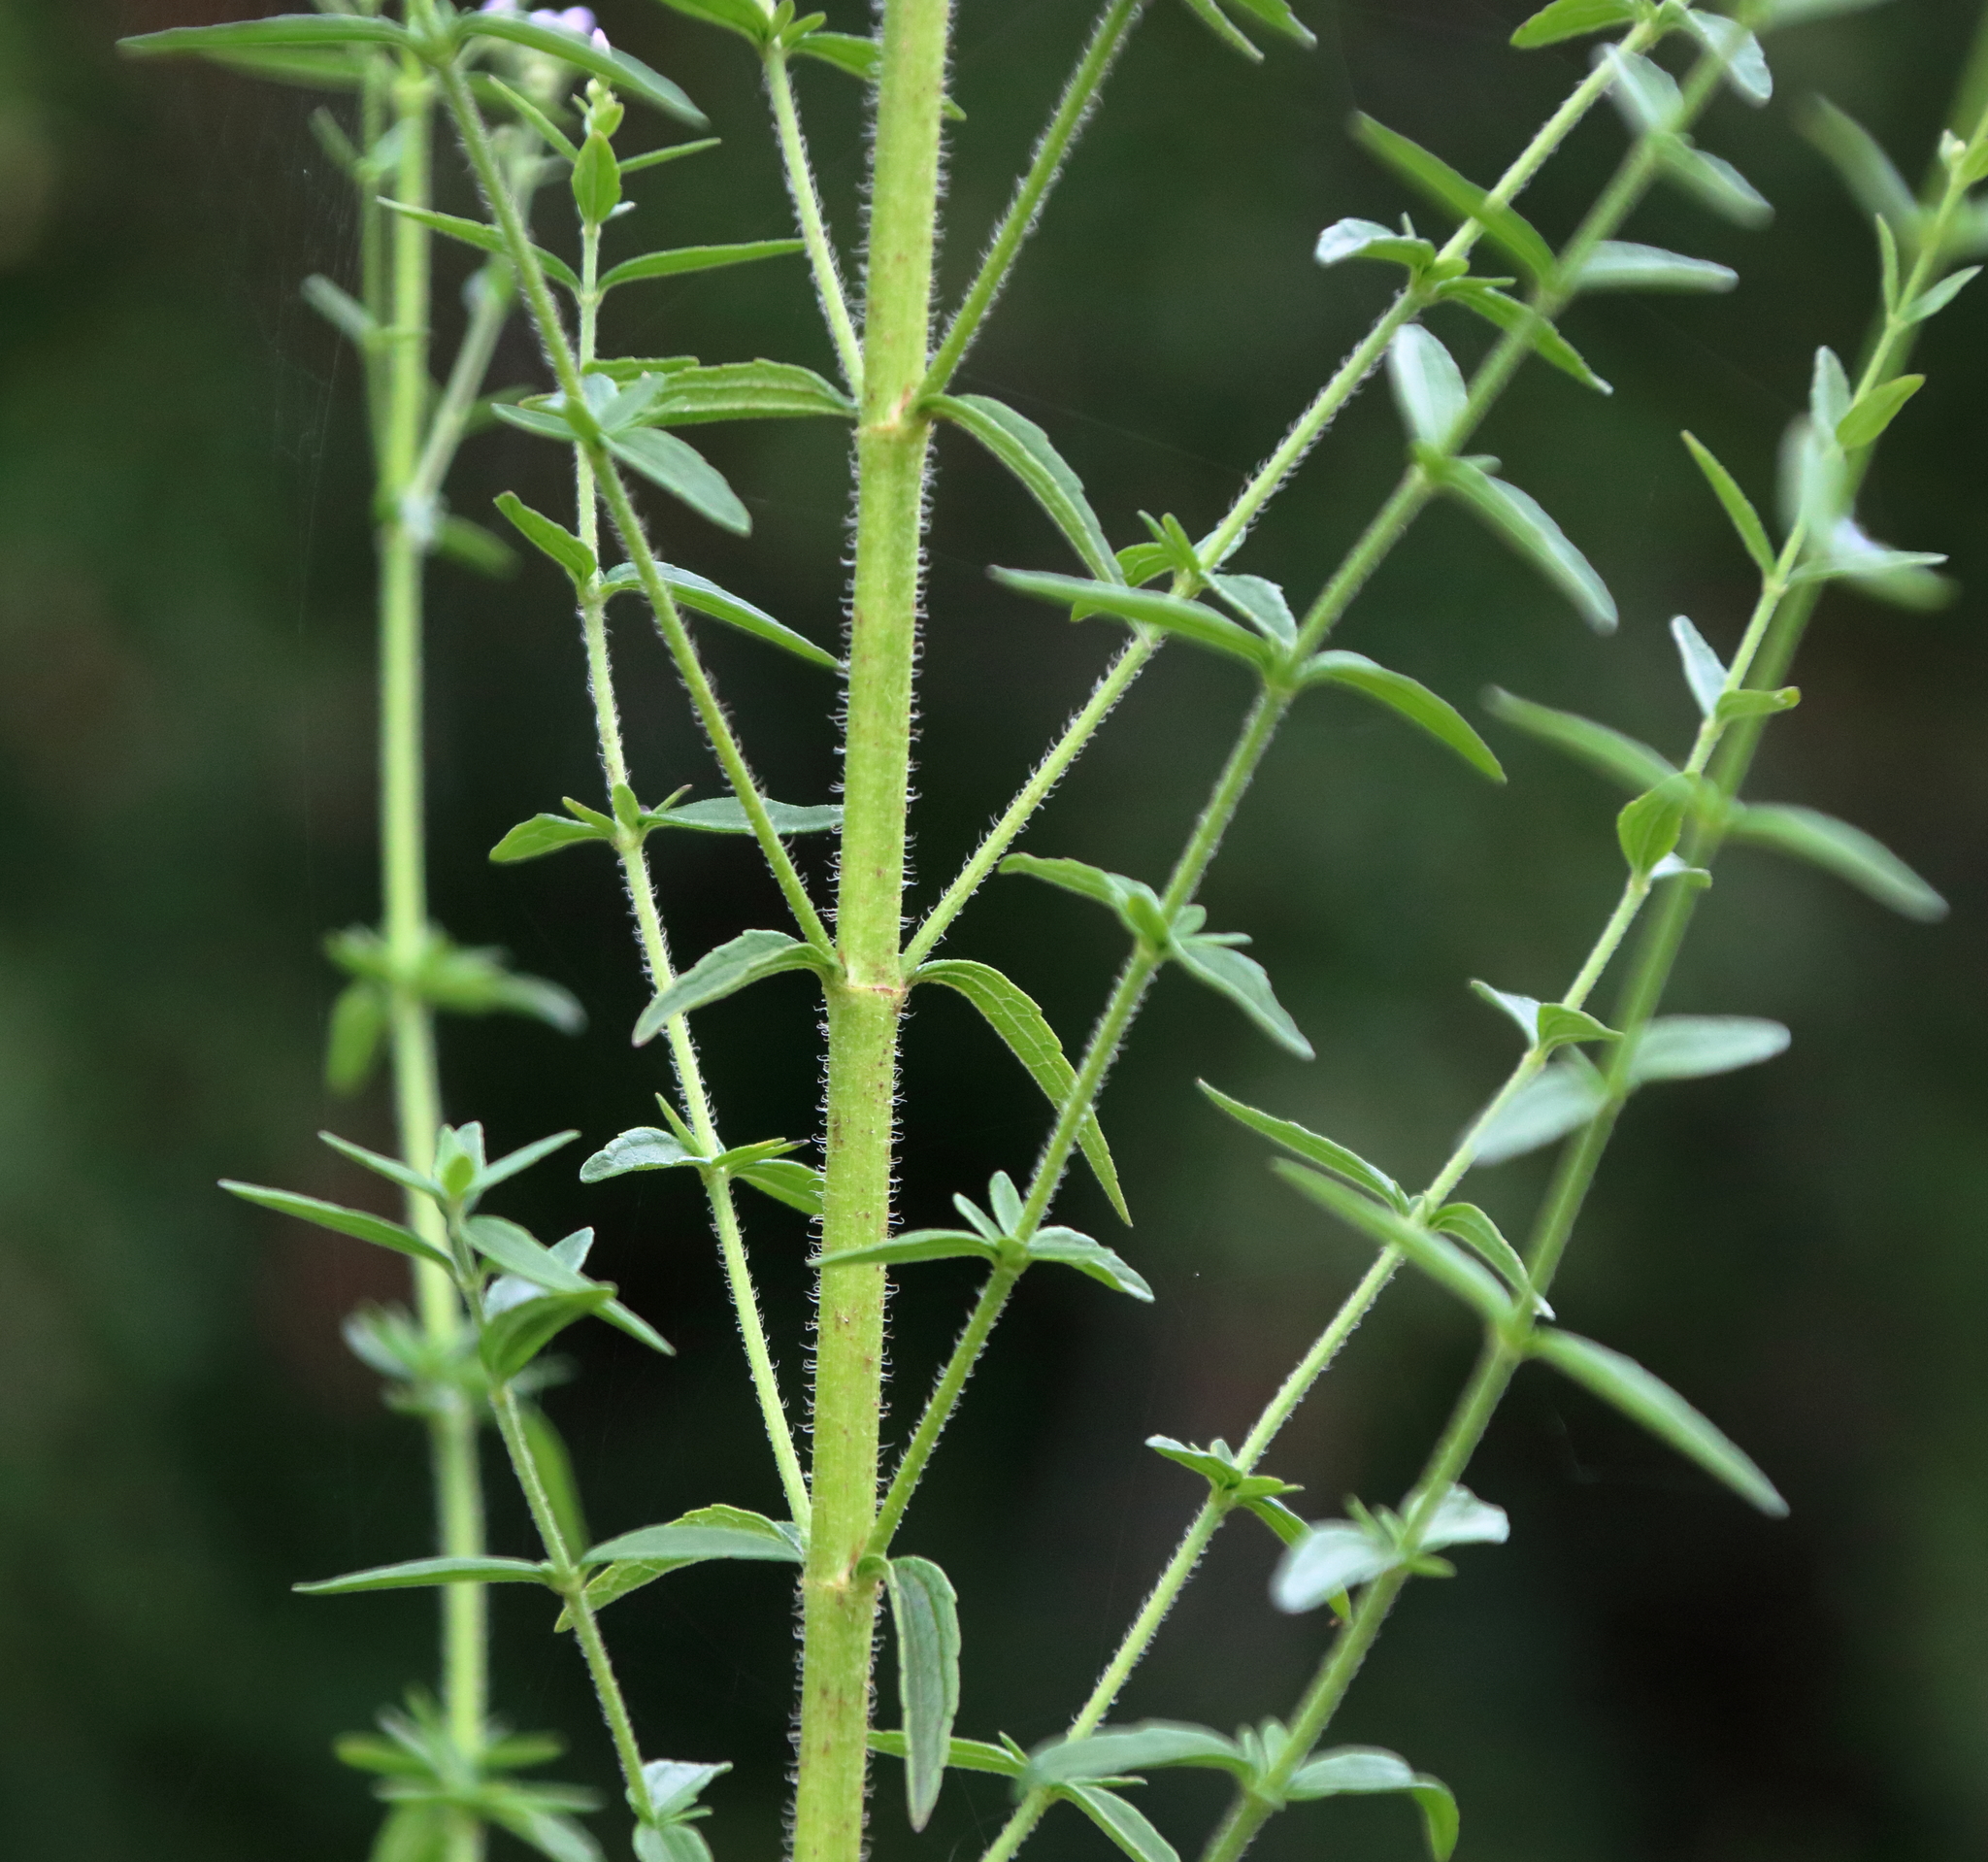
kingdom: Plantae
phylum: Tracheophyta
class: Magnoliopsida
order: Asterales
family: Asteraceae
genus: Chromolaena
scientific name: Chromolaena ivifolia
